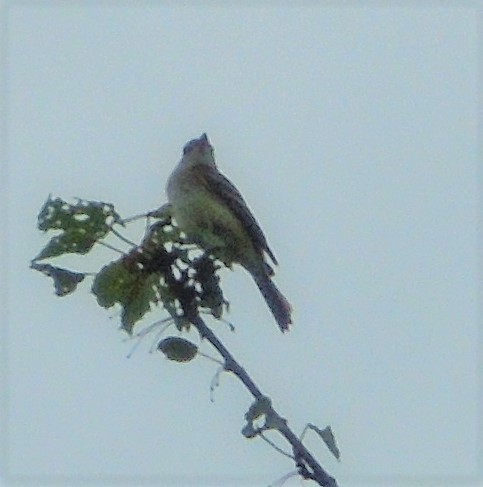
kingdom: Animalia
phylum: Chordata
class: Aves
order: Passeriformes
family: Tyrannidae
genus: Empidonax
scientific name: Empidonax
